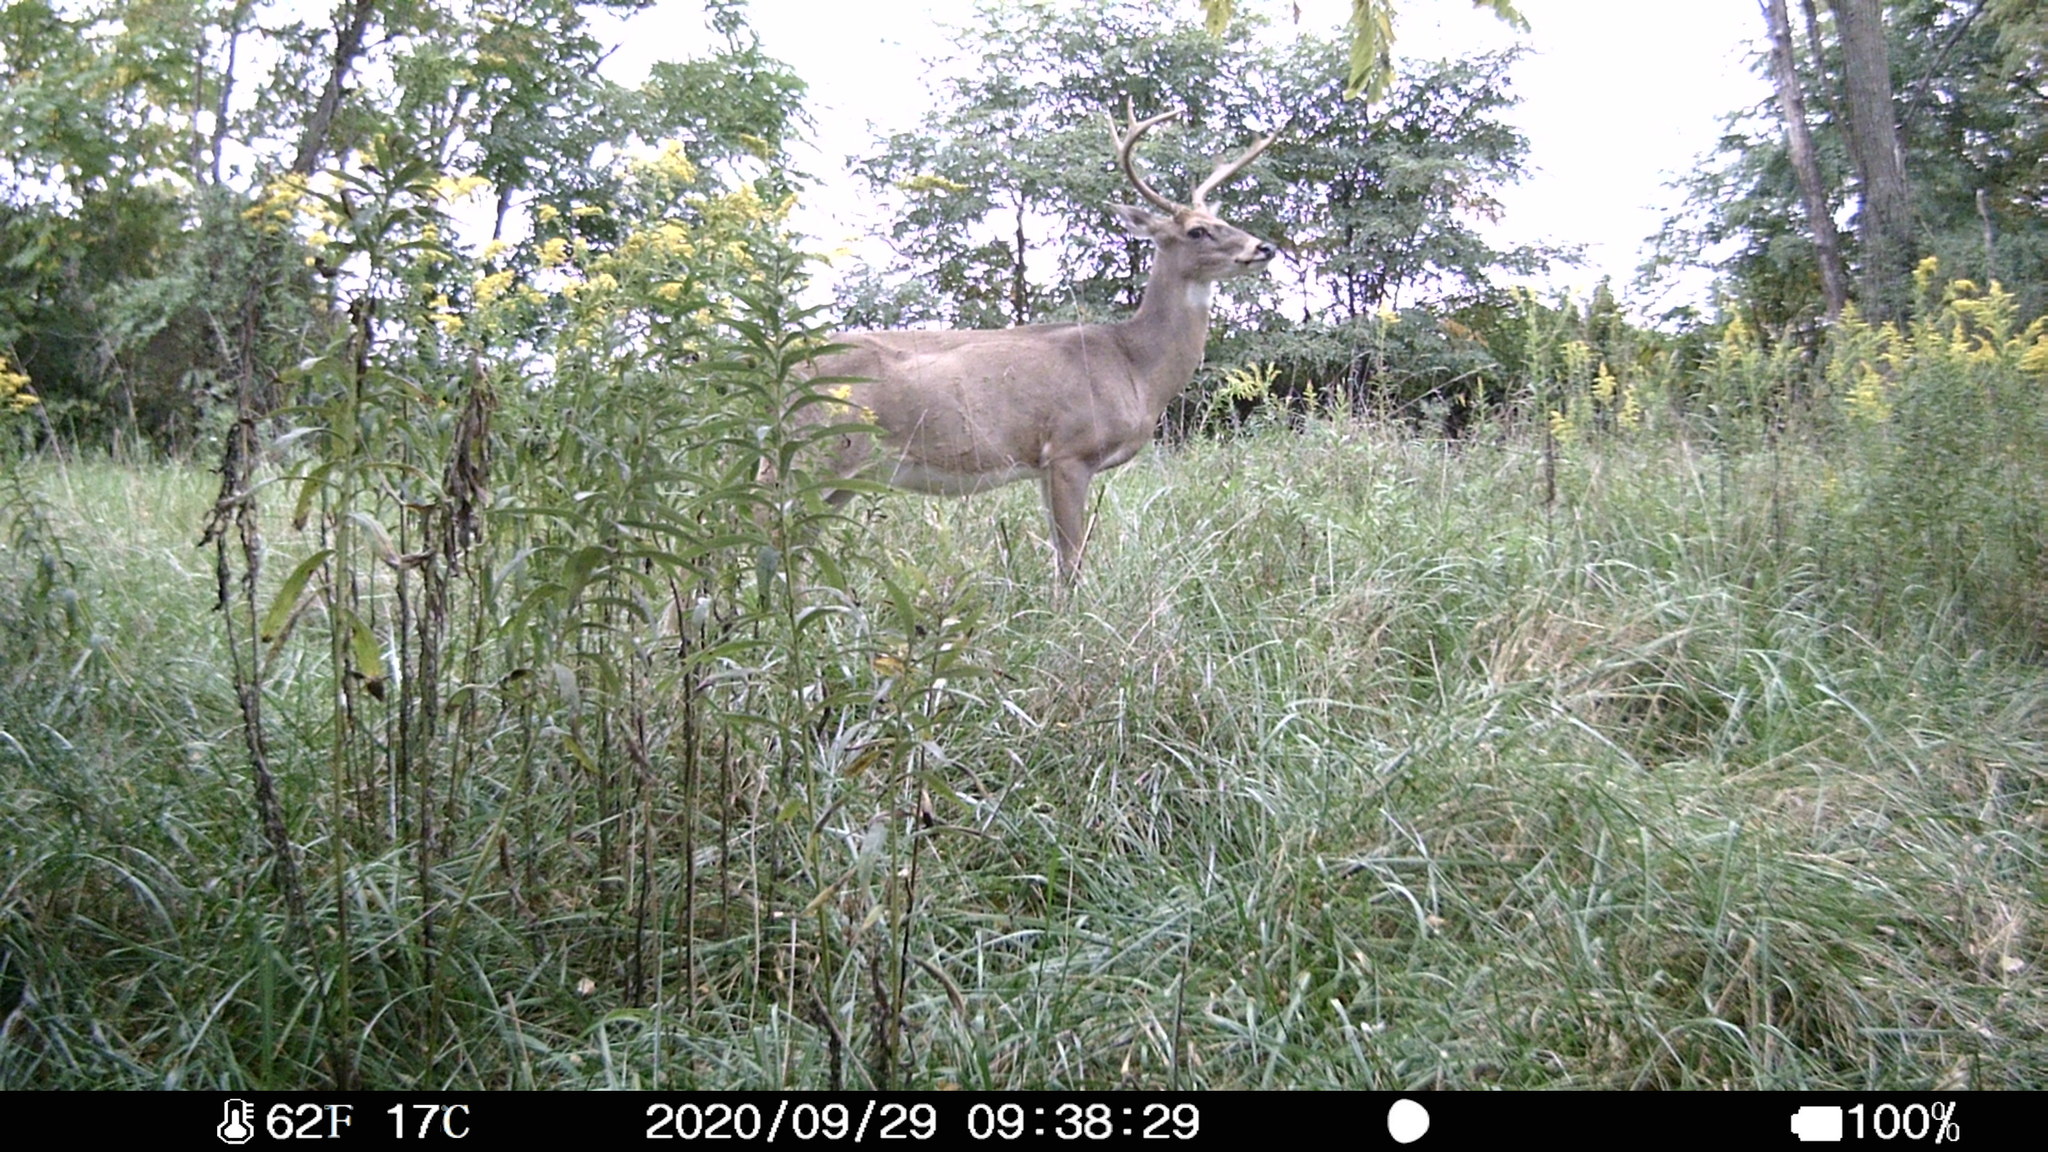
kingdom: Animalia
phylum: Chordata
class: Mammalia
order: Artiodactyla
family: Cervidae
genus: Odocoileus
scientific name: Odocoileus virginianus
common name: White-tailed deer
